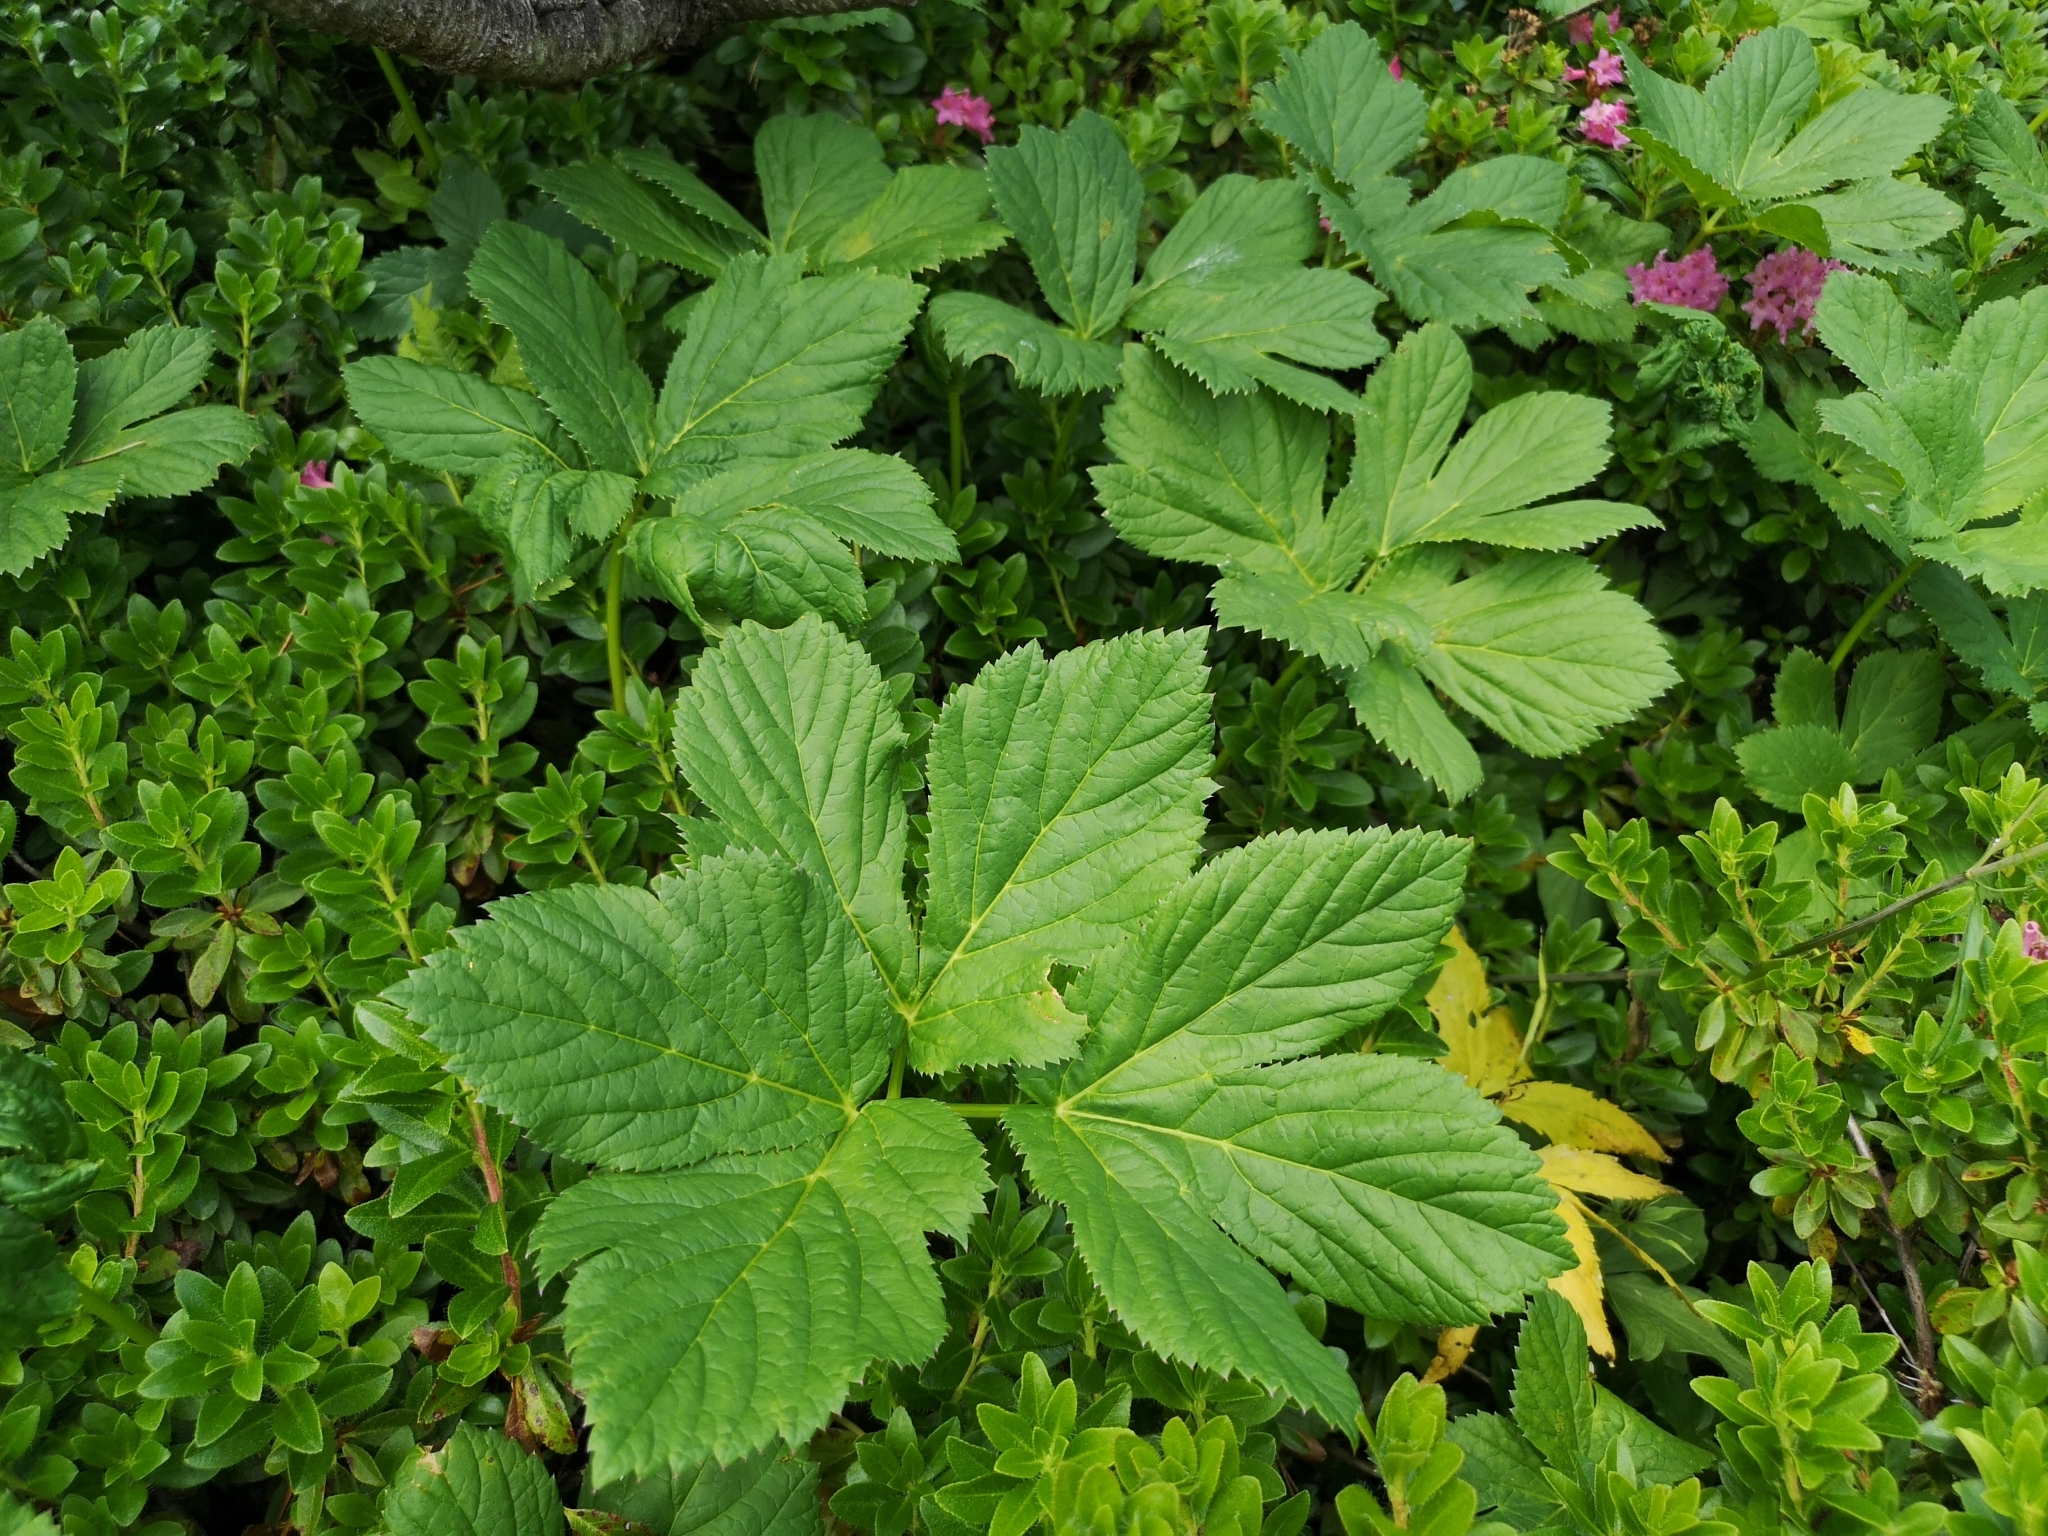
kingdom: Plantae
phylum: Tracheophyta
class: Magnoliopsida
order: Apiales
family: Apiaceae
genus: Imperatoria
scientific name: Imperatoria ostruthium
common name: Masterwort
